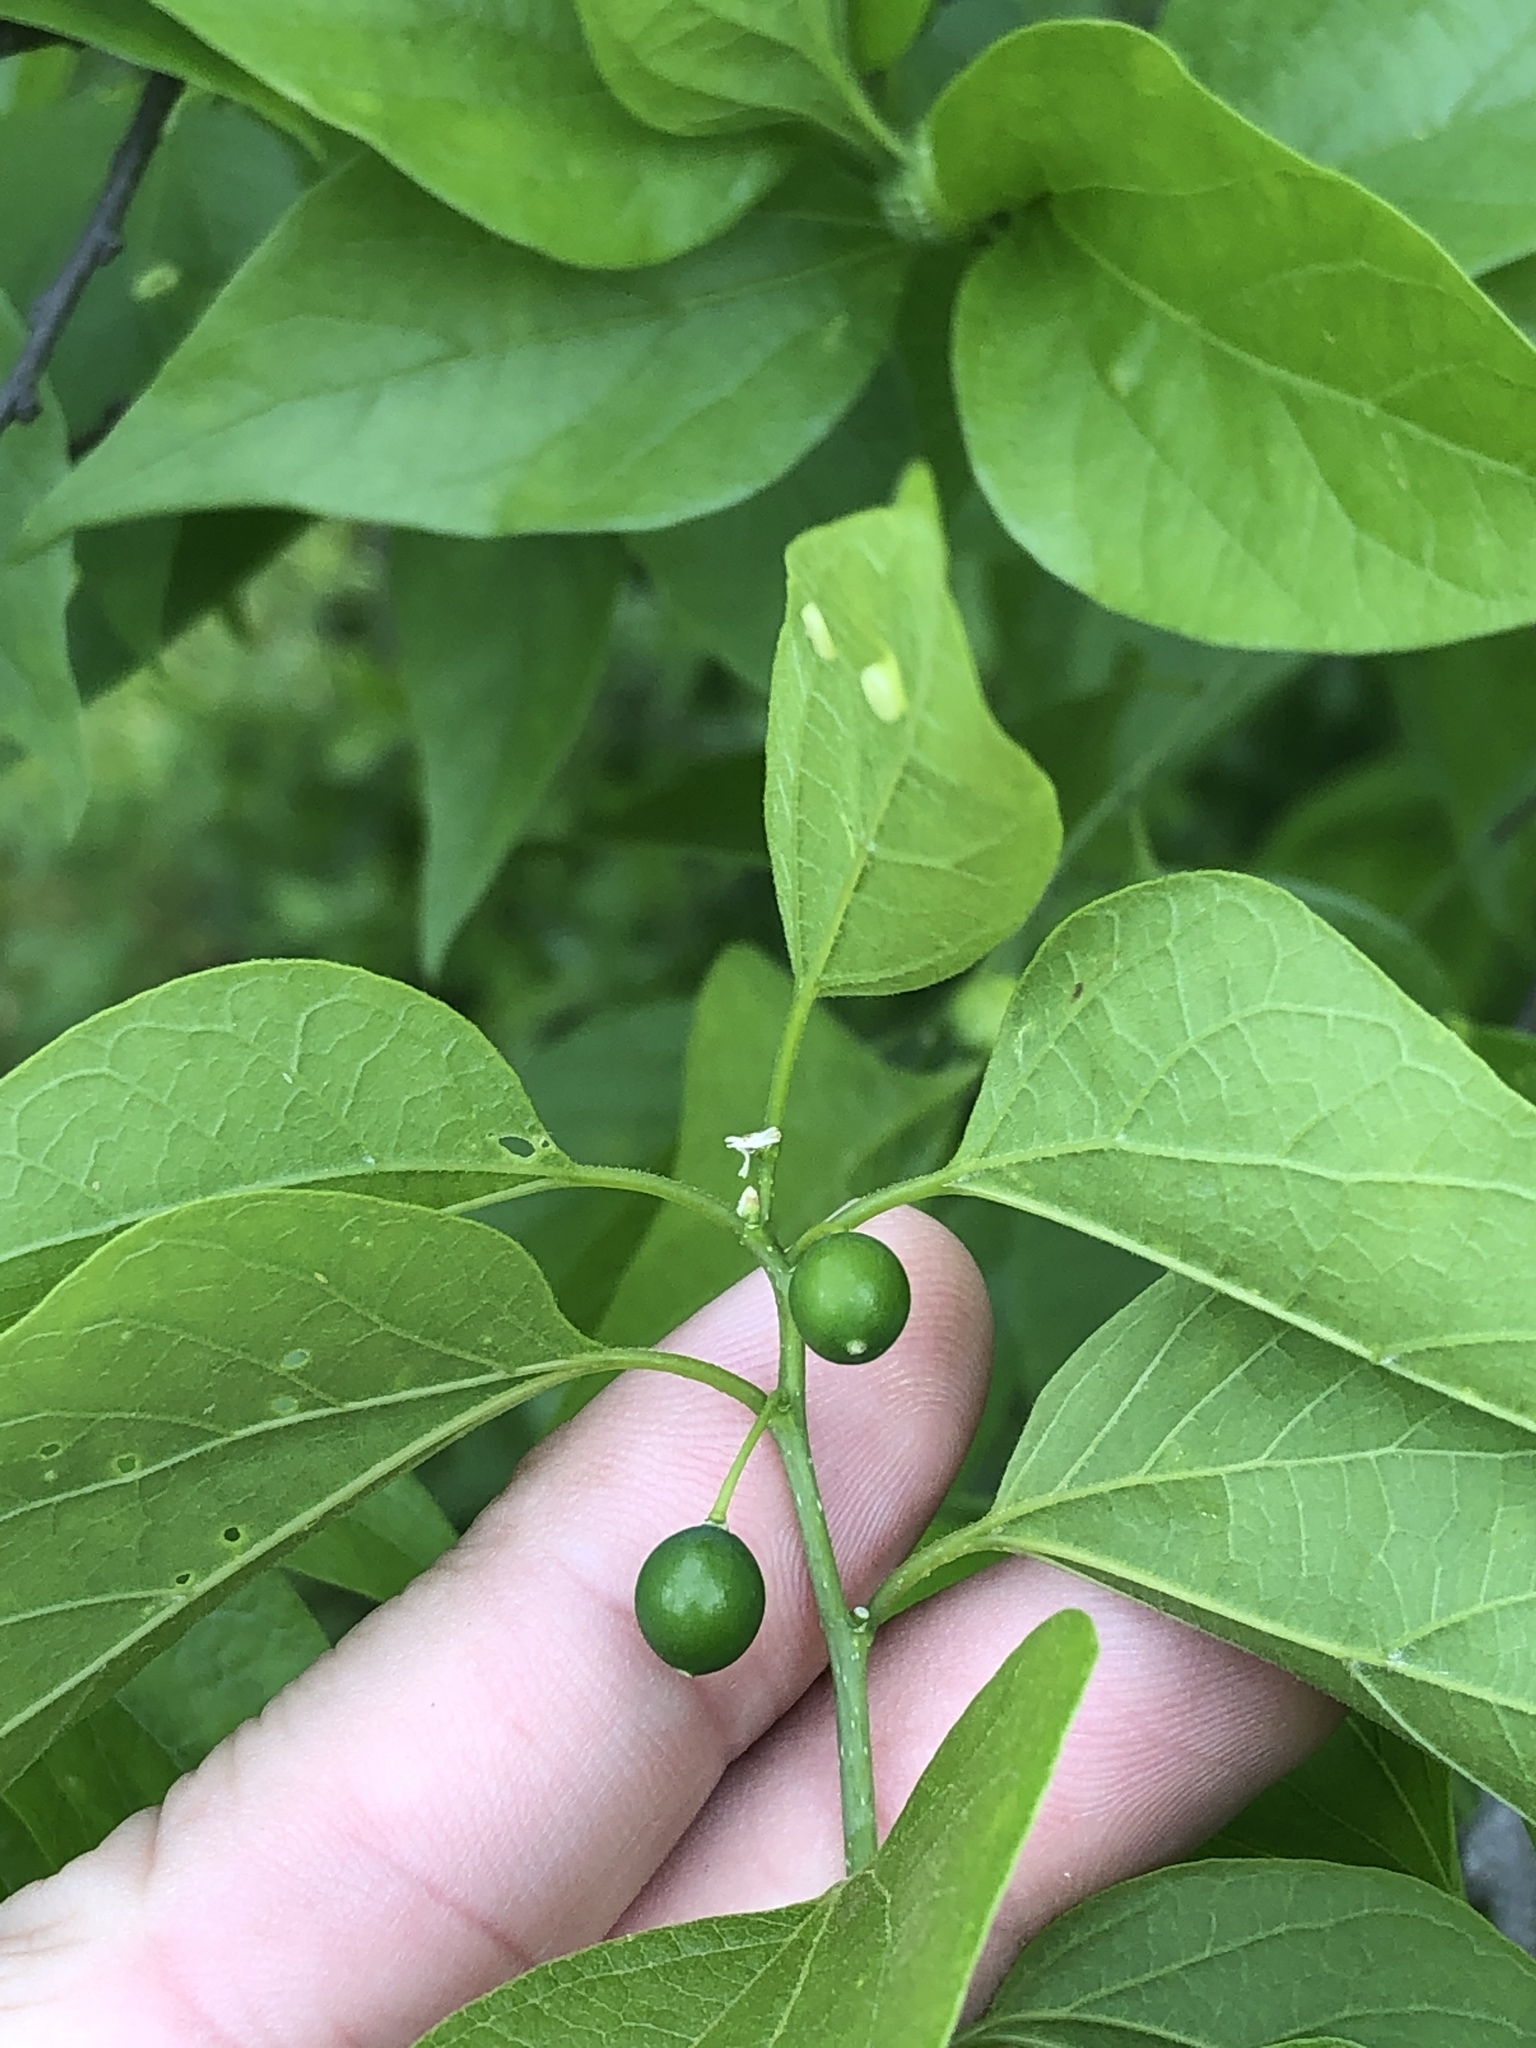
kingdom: Plantae
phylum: Tracheophyta
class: Magnoliopsida
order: Rosales
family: Cannabaceae
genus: Celtis
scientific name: Celtis laevigata
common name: Sugarberry
